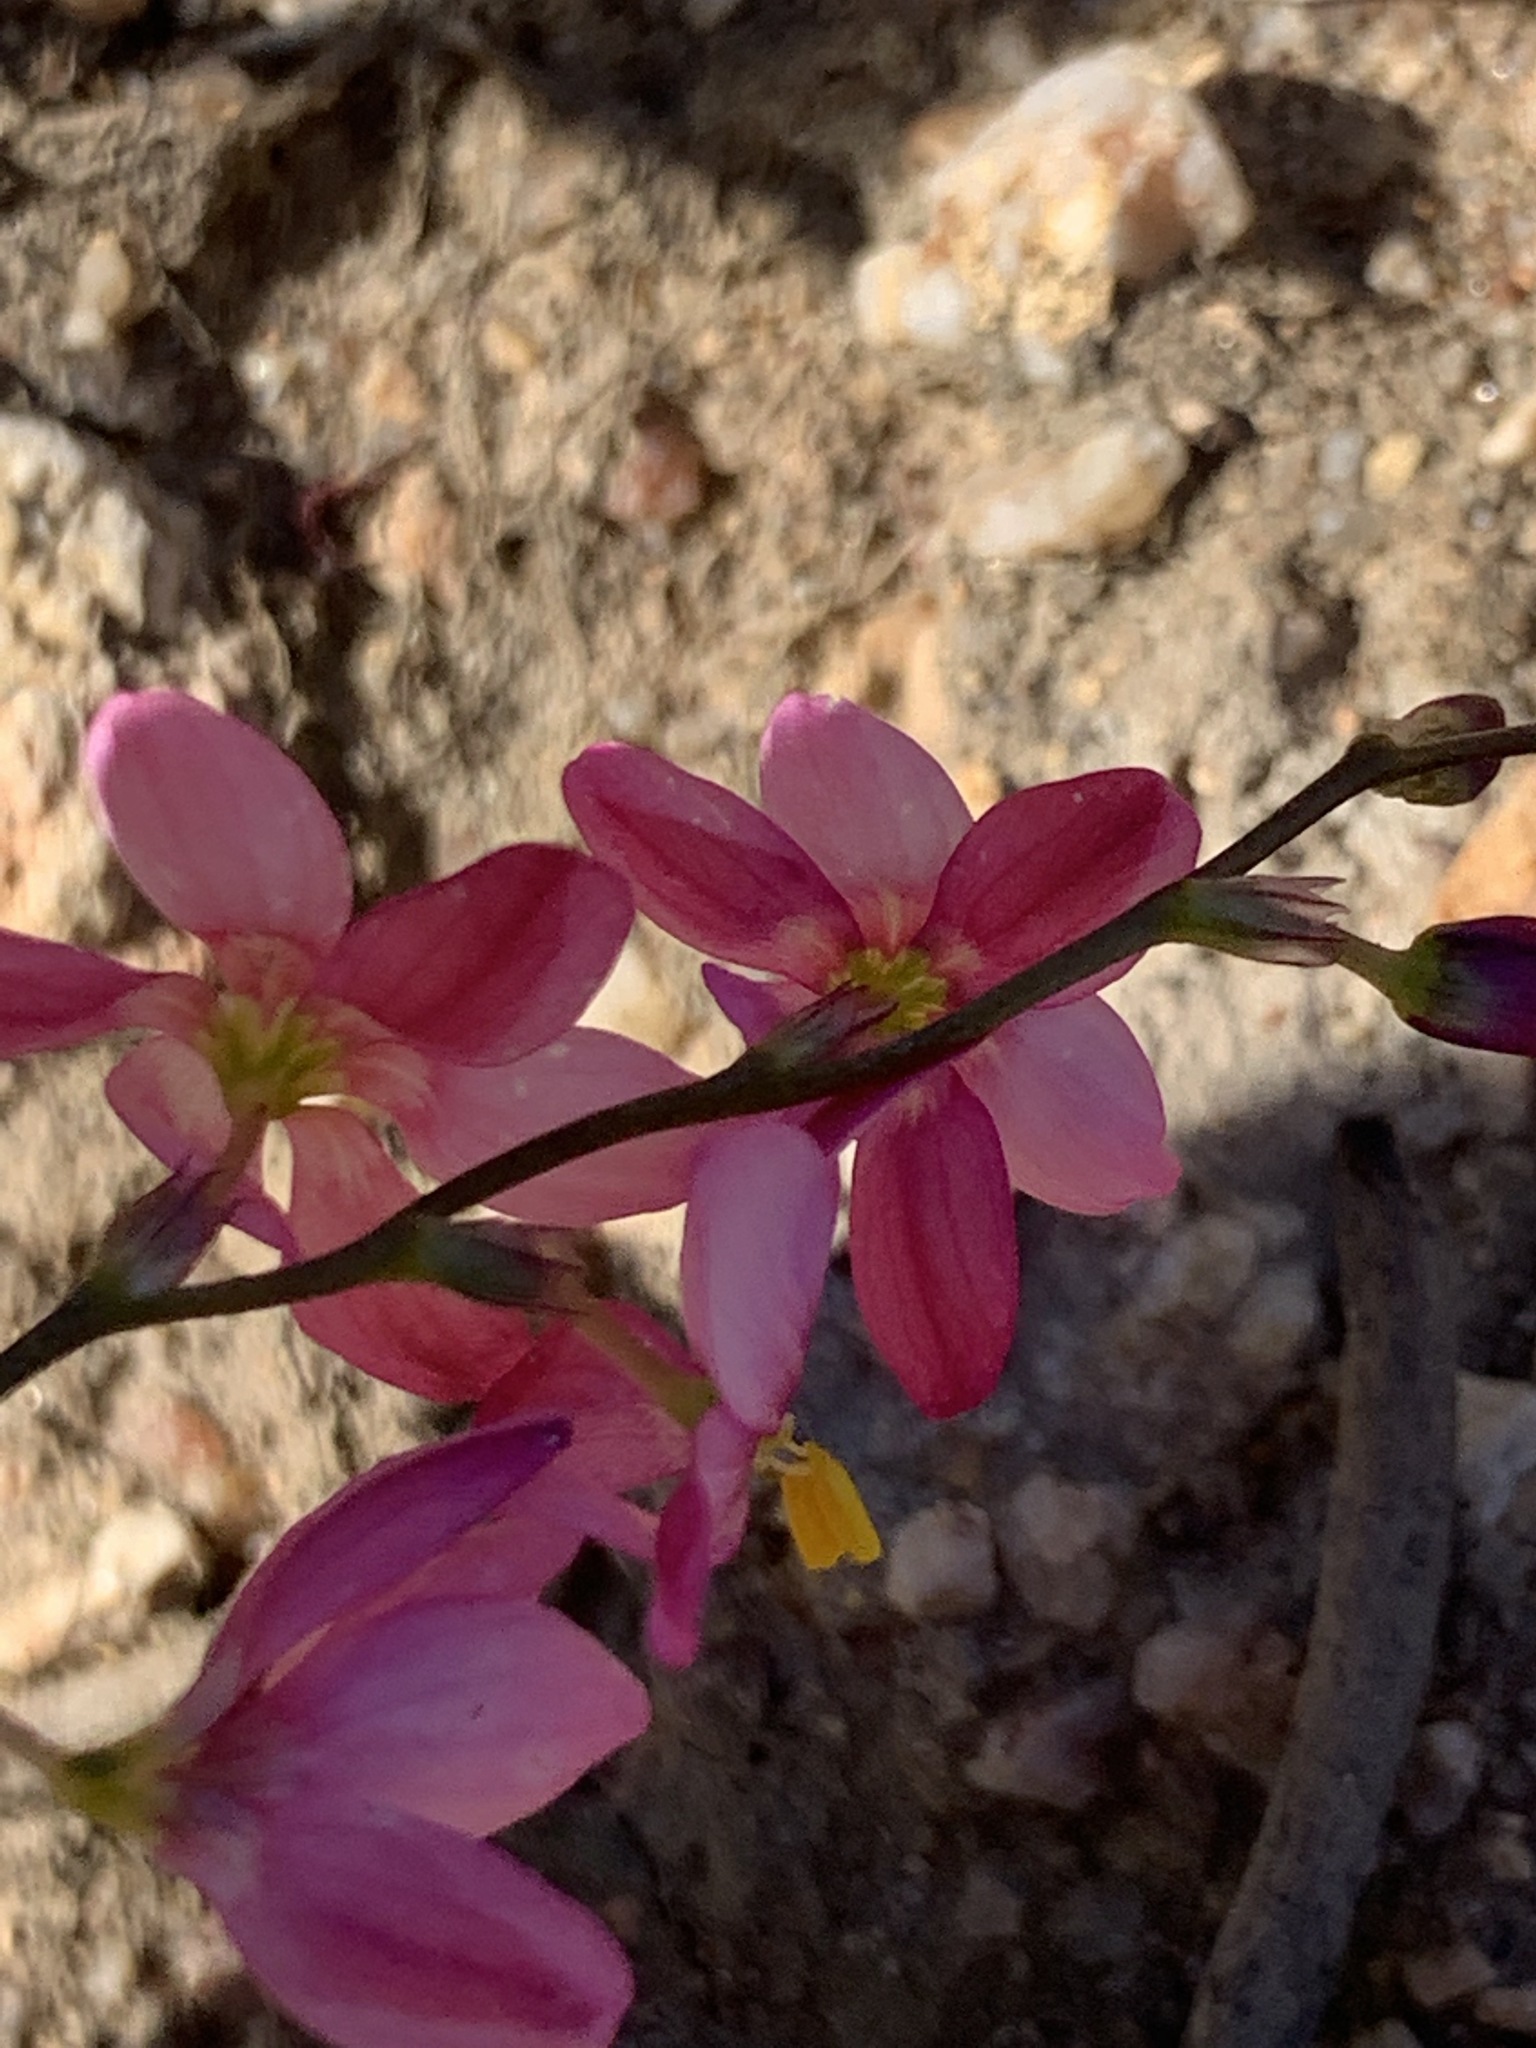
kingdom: Plantae
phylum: Tracheophyta
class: Liliopsida
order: Asparagales
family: Iridaceae
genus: Ixia
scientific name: Ixia scillaris
